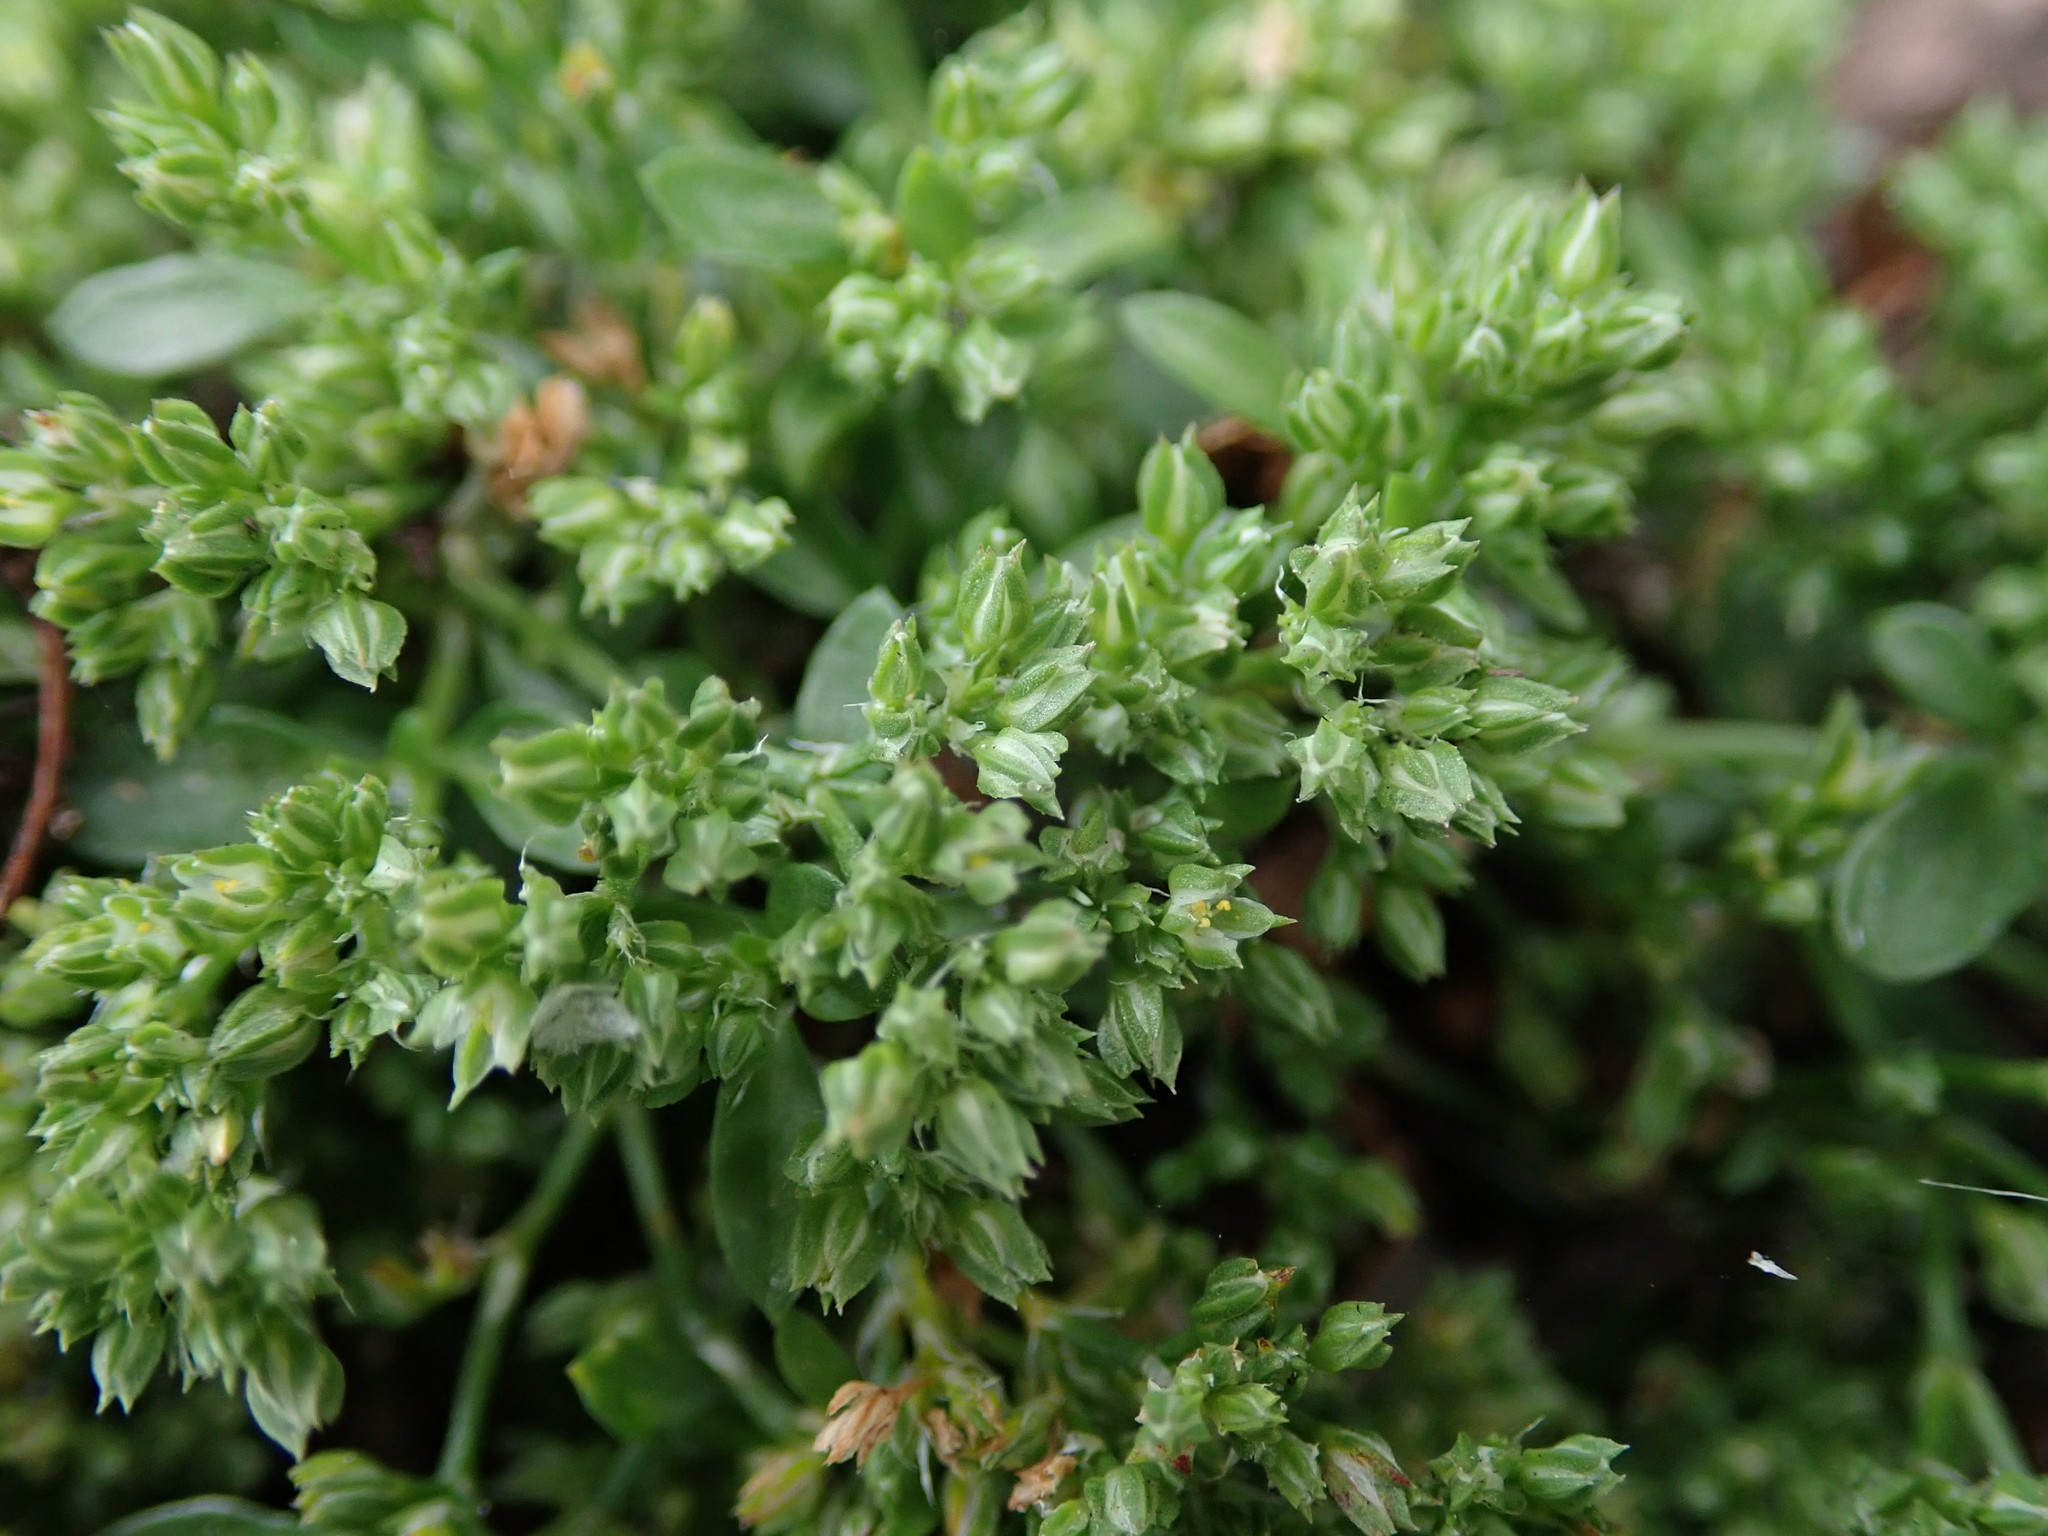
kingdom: Plantae
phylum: Tracheophyta
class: Magnoliopsida
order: Caryophyllales
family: Caryophyllaceae
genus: Polycarpon
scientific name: Polycarpon tetraphyllum
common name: Four-leaved all-seed
